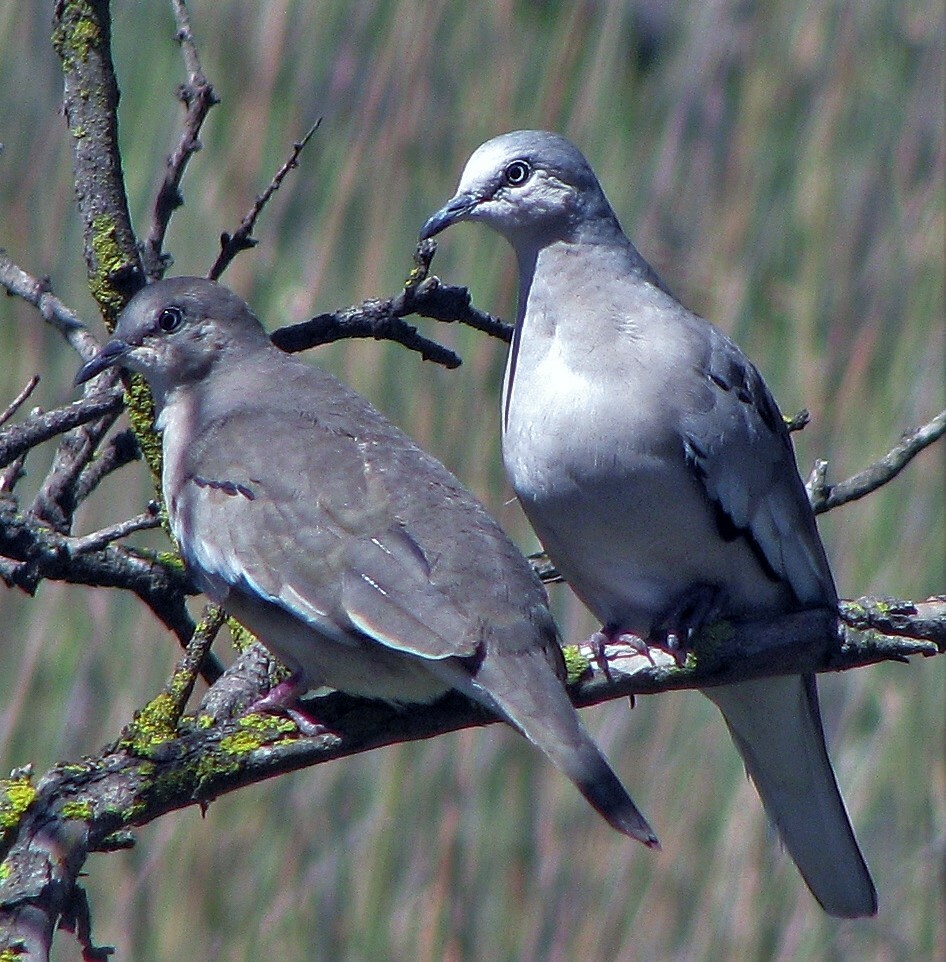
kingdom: Animalia
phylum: Chordata
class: Aves
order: Columbiformes
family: Columbidae
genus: Columbina
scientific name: Columbina picui
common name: Picui ground dove
